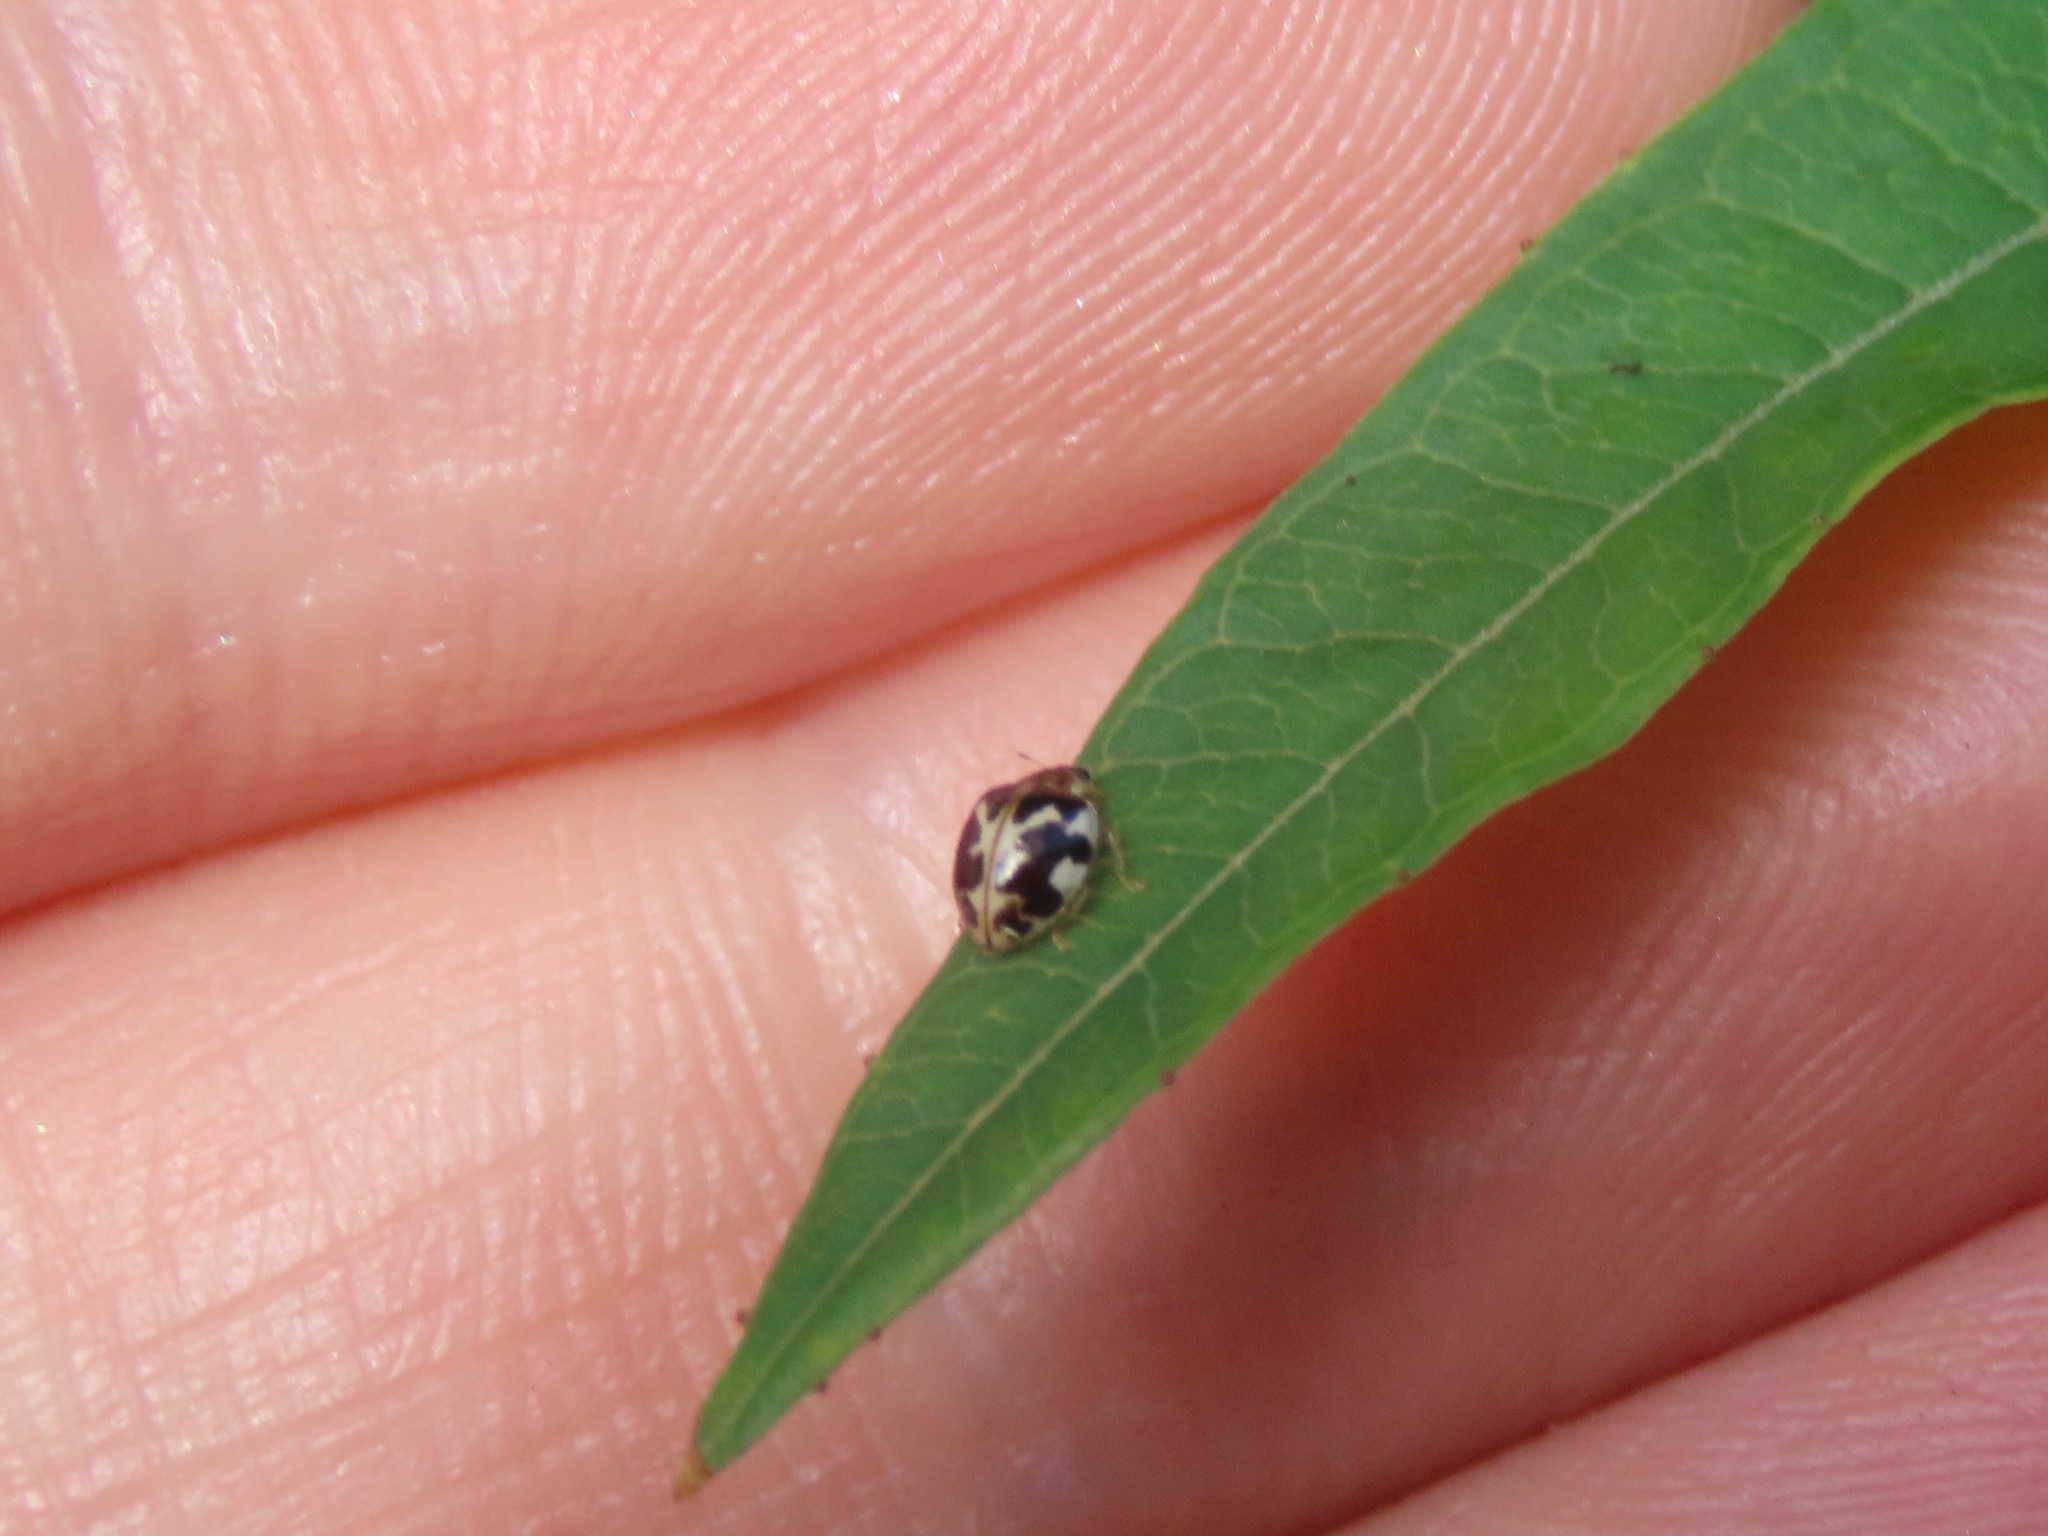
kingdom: Animalia
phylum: Arthropoda
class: Insecta
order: Coleoptera
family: Coccinellidae
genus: Psyllobora
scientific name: Psyllobora vigintimaculata
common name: Ladybird beetle
